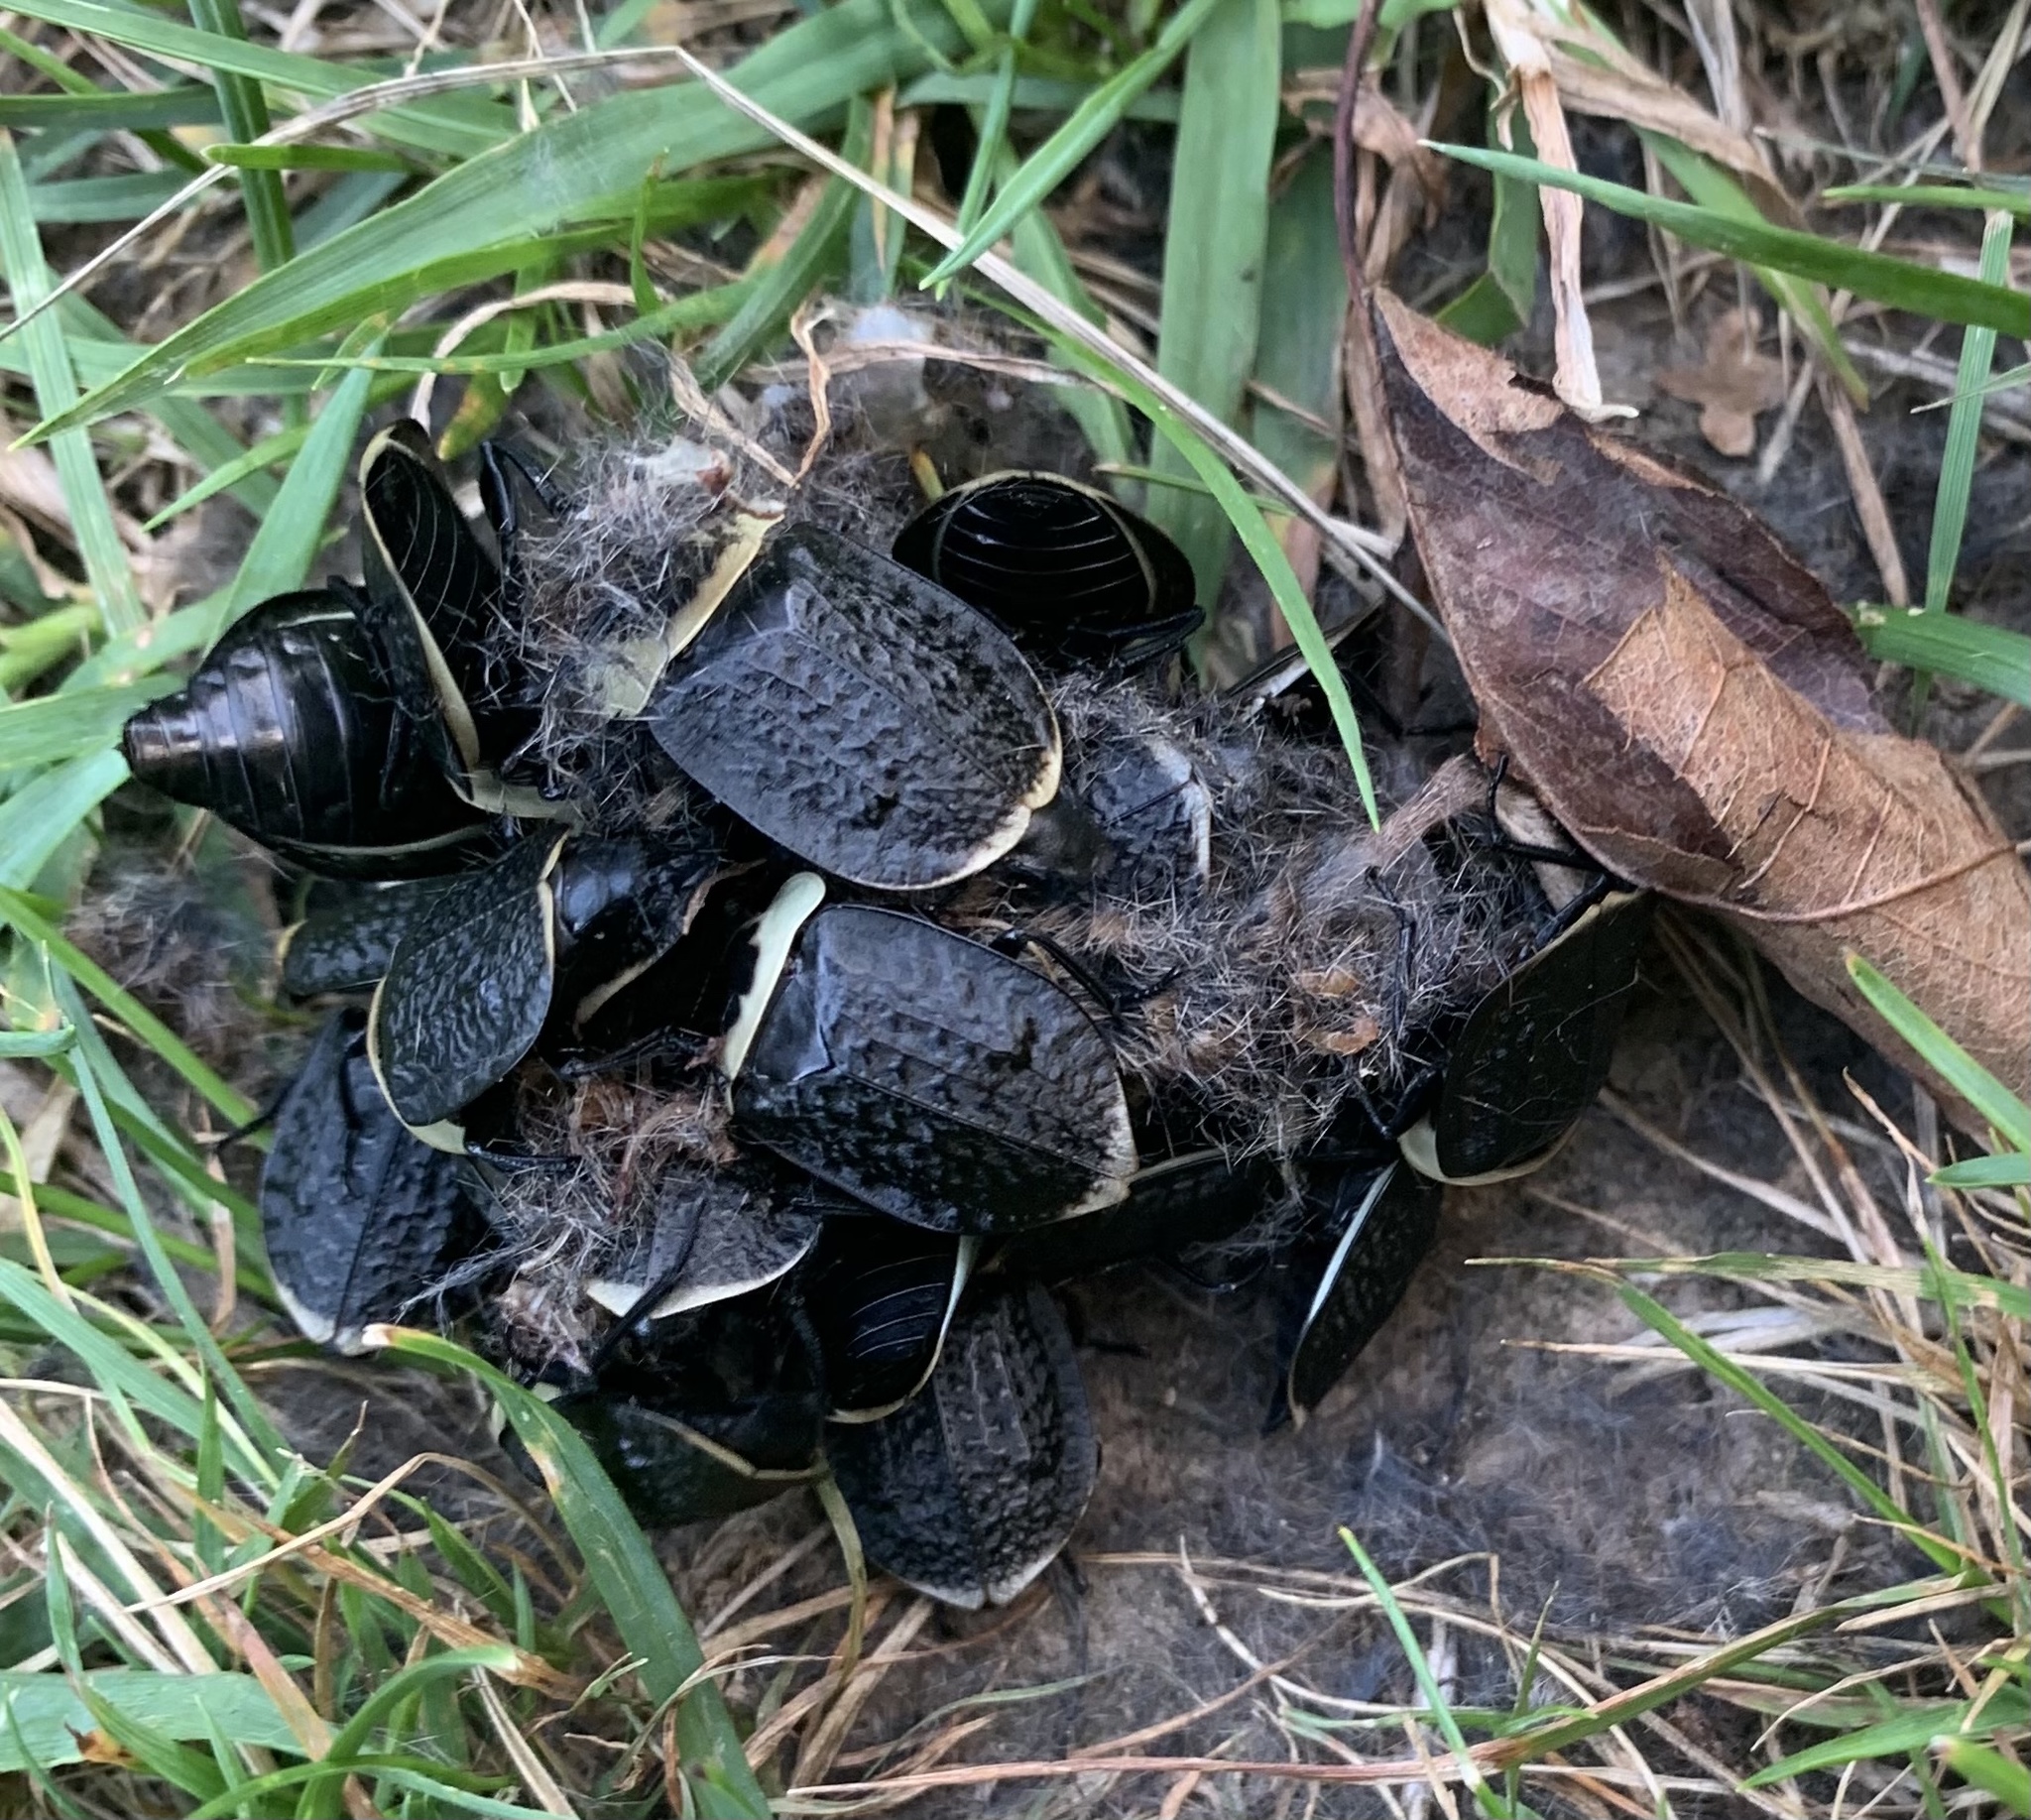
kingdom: Animalia
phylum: Arthropoda
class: Insecta
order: Coleoptera
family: Staphylinidae
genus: Necrophila
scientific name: Necrophila americana
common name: American carrion beetle
